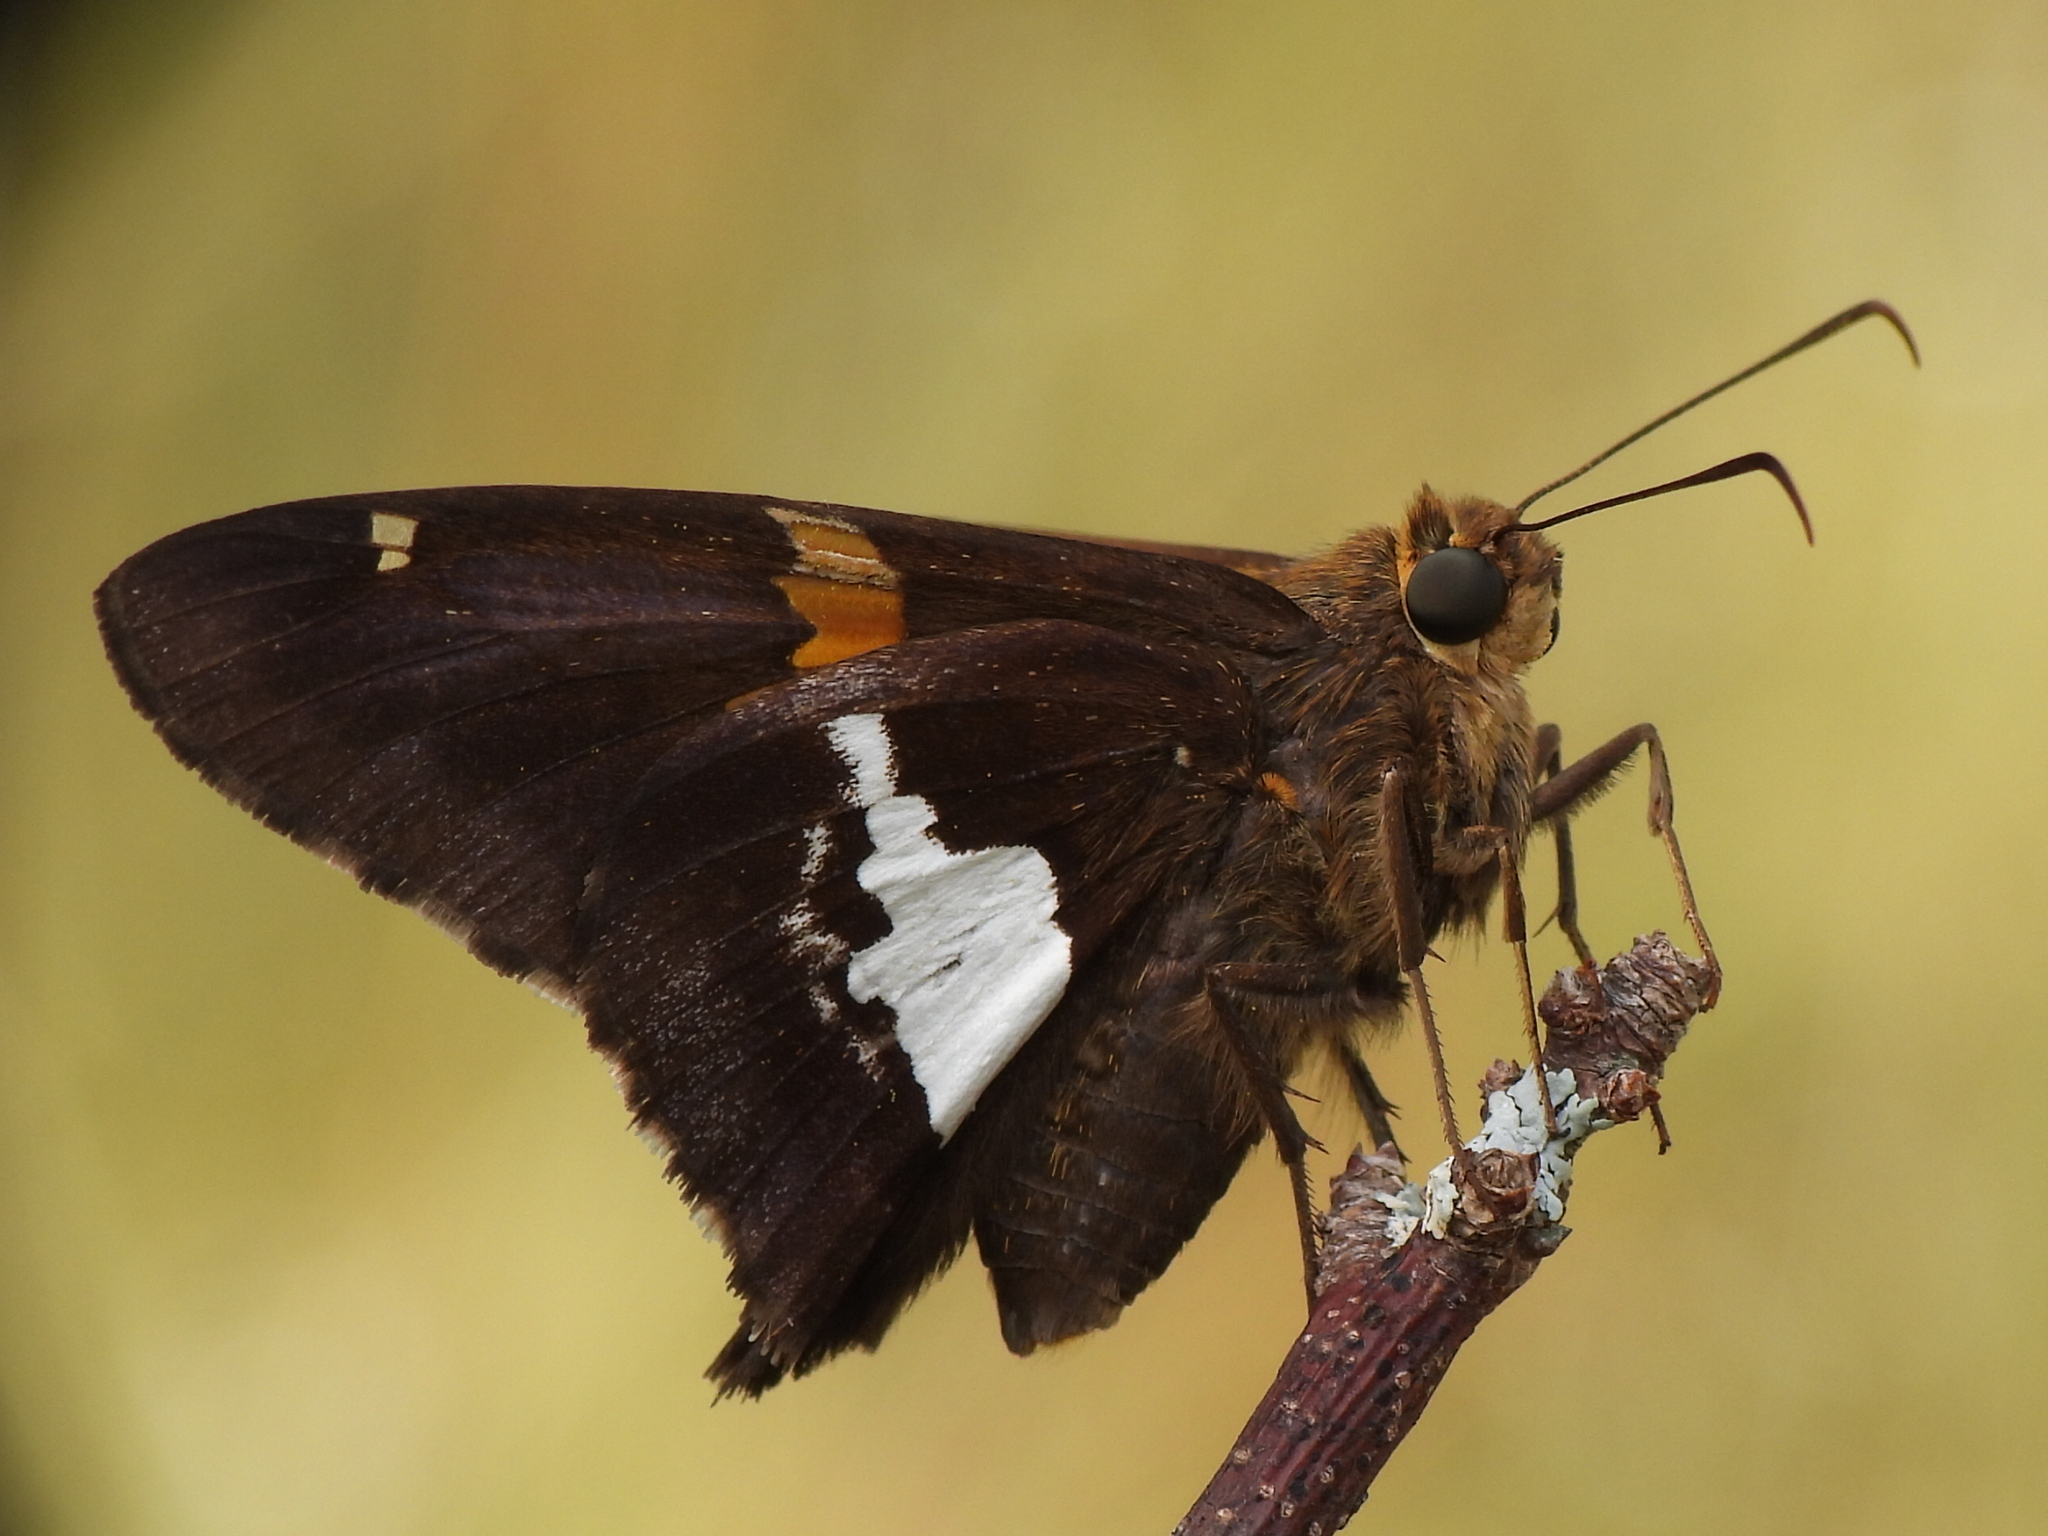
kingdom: Animalia
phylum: Arthropoda
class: Insecta
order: Lepidoptera
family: Hesperiidae
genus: Epargyreus
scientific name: Epargyreus clarus
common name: Silver-spotted skipper
